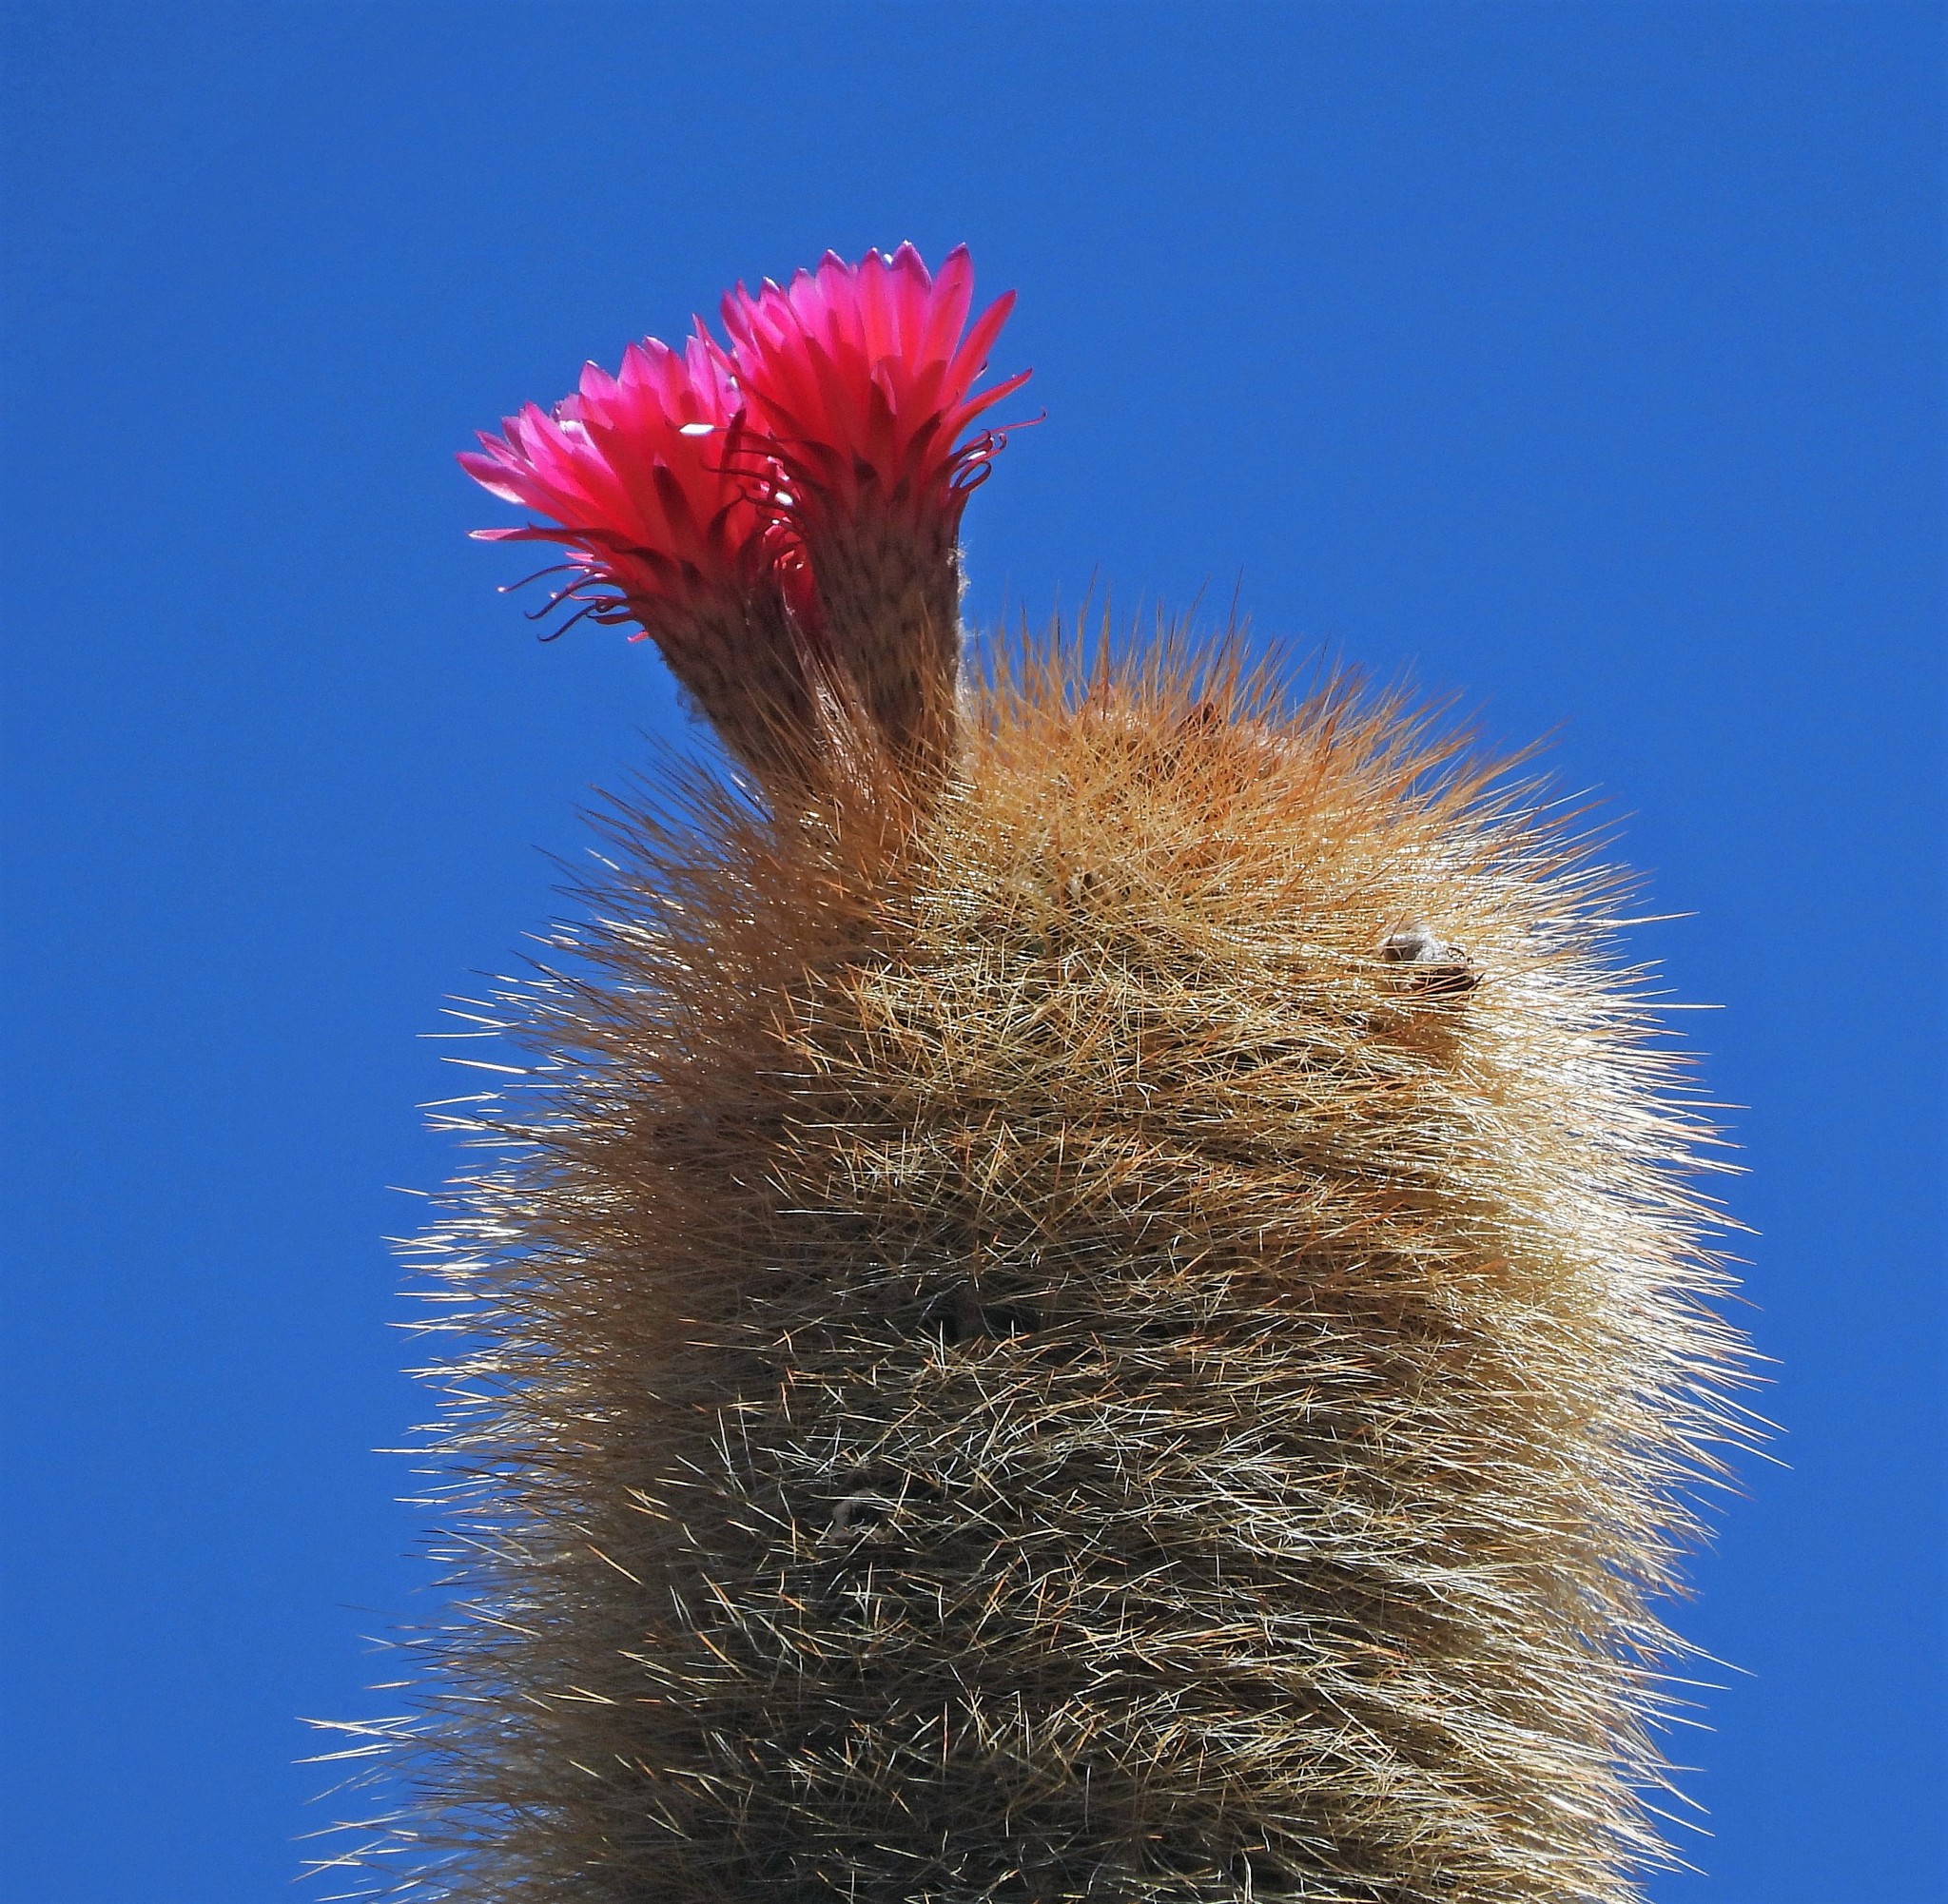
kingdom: Plantae
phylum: Tracheophyta
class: Magnoliopsida
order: Caryophyllales
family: Cactaceae
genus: Soehrensia
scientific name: Soehrensia tarijensis
